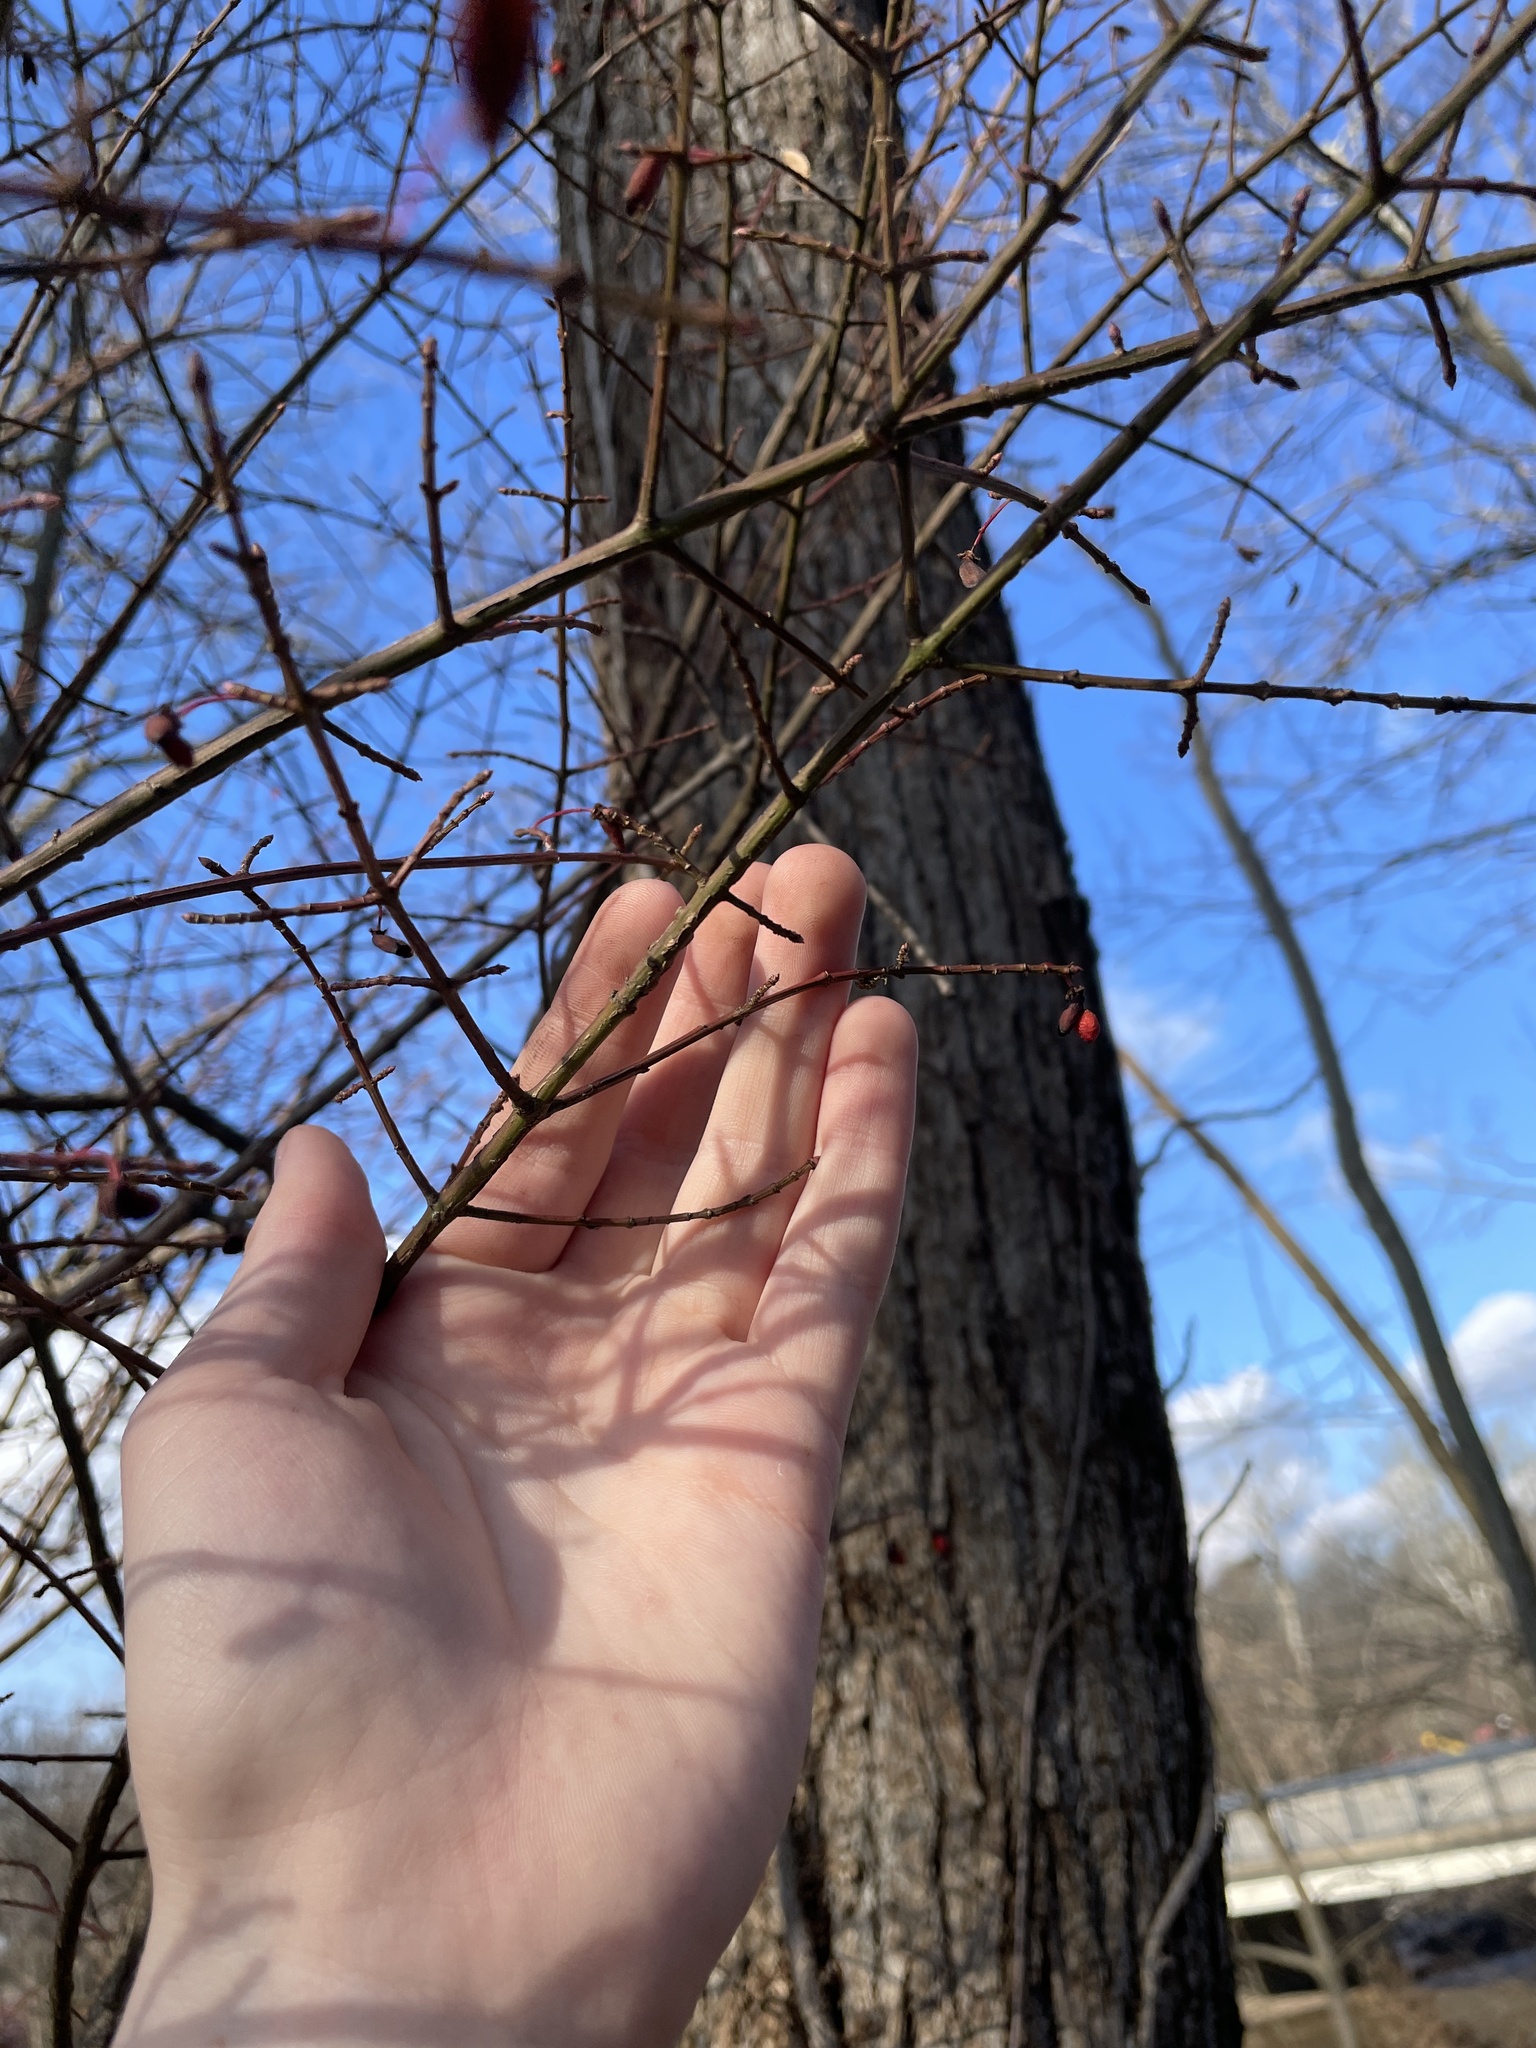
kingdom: Plantae
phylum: Tracheophyta
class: Magnoliopsida
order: Celastrales
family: Celastraceae
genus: Euonymus
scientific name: Euonymus alatus
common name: Winged euonymus
